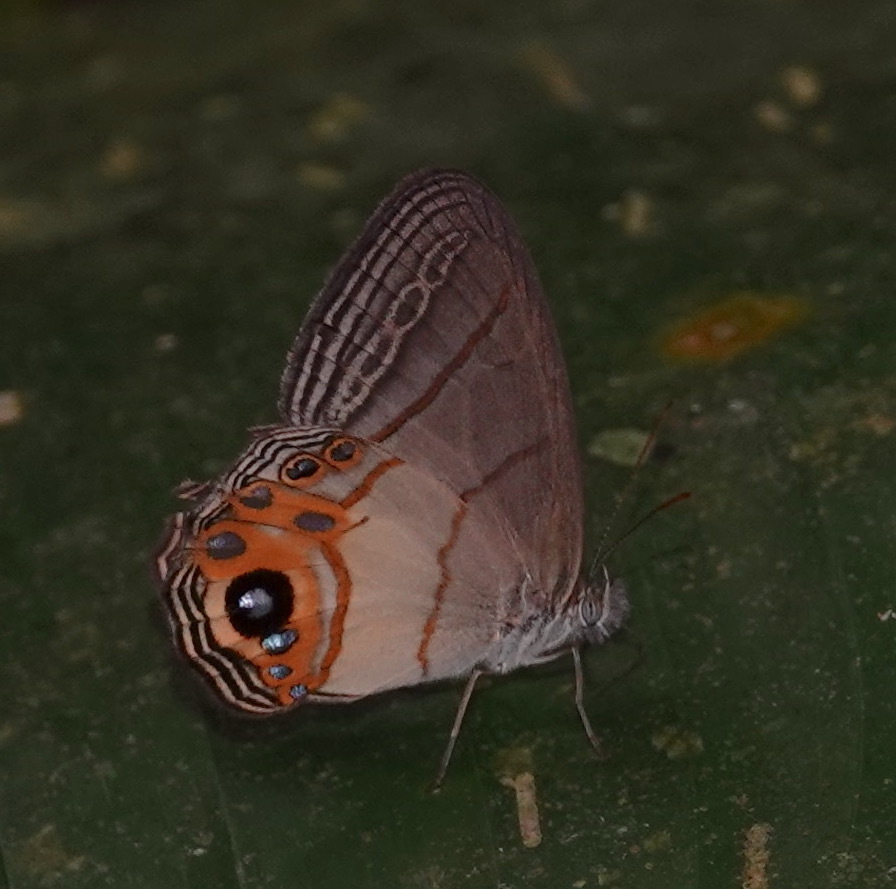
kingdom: Animalia
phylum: Arthropoda
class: Insecta
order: Lepidoptera
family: Nymphalidae
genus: Splendeuptychia
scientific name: Splendeuptychia jadea
